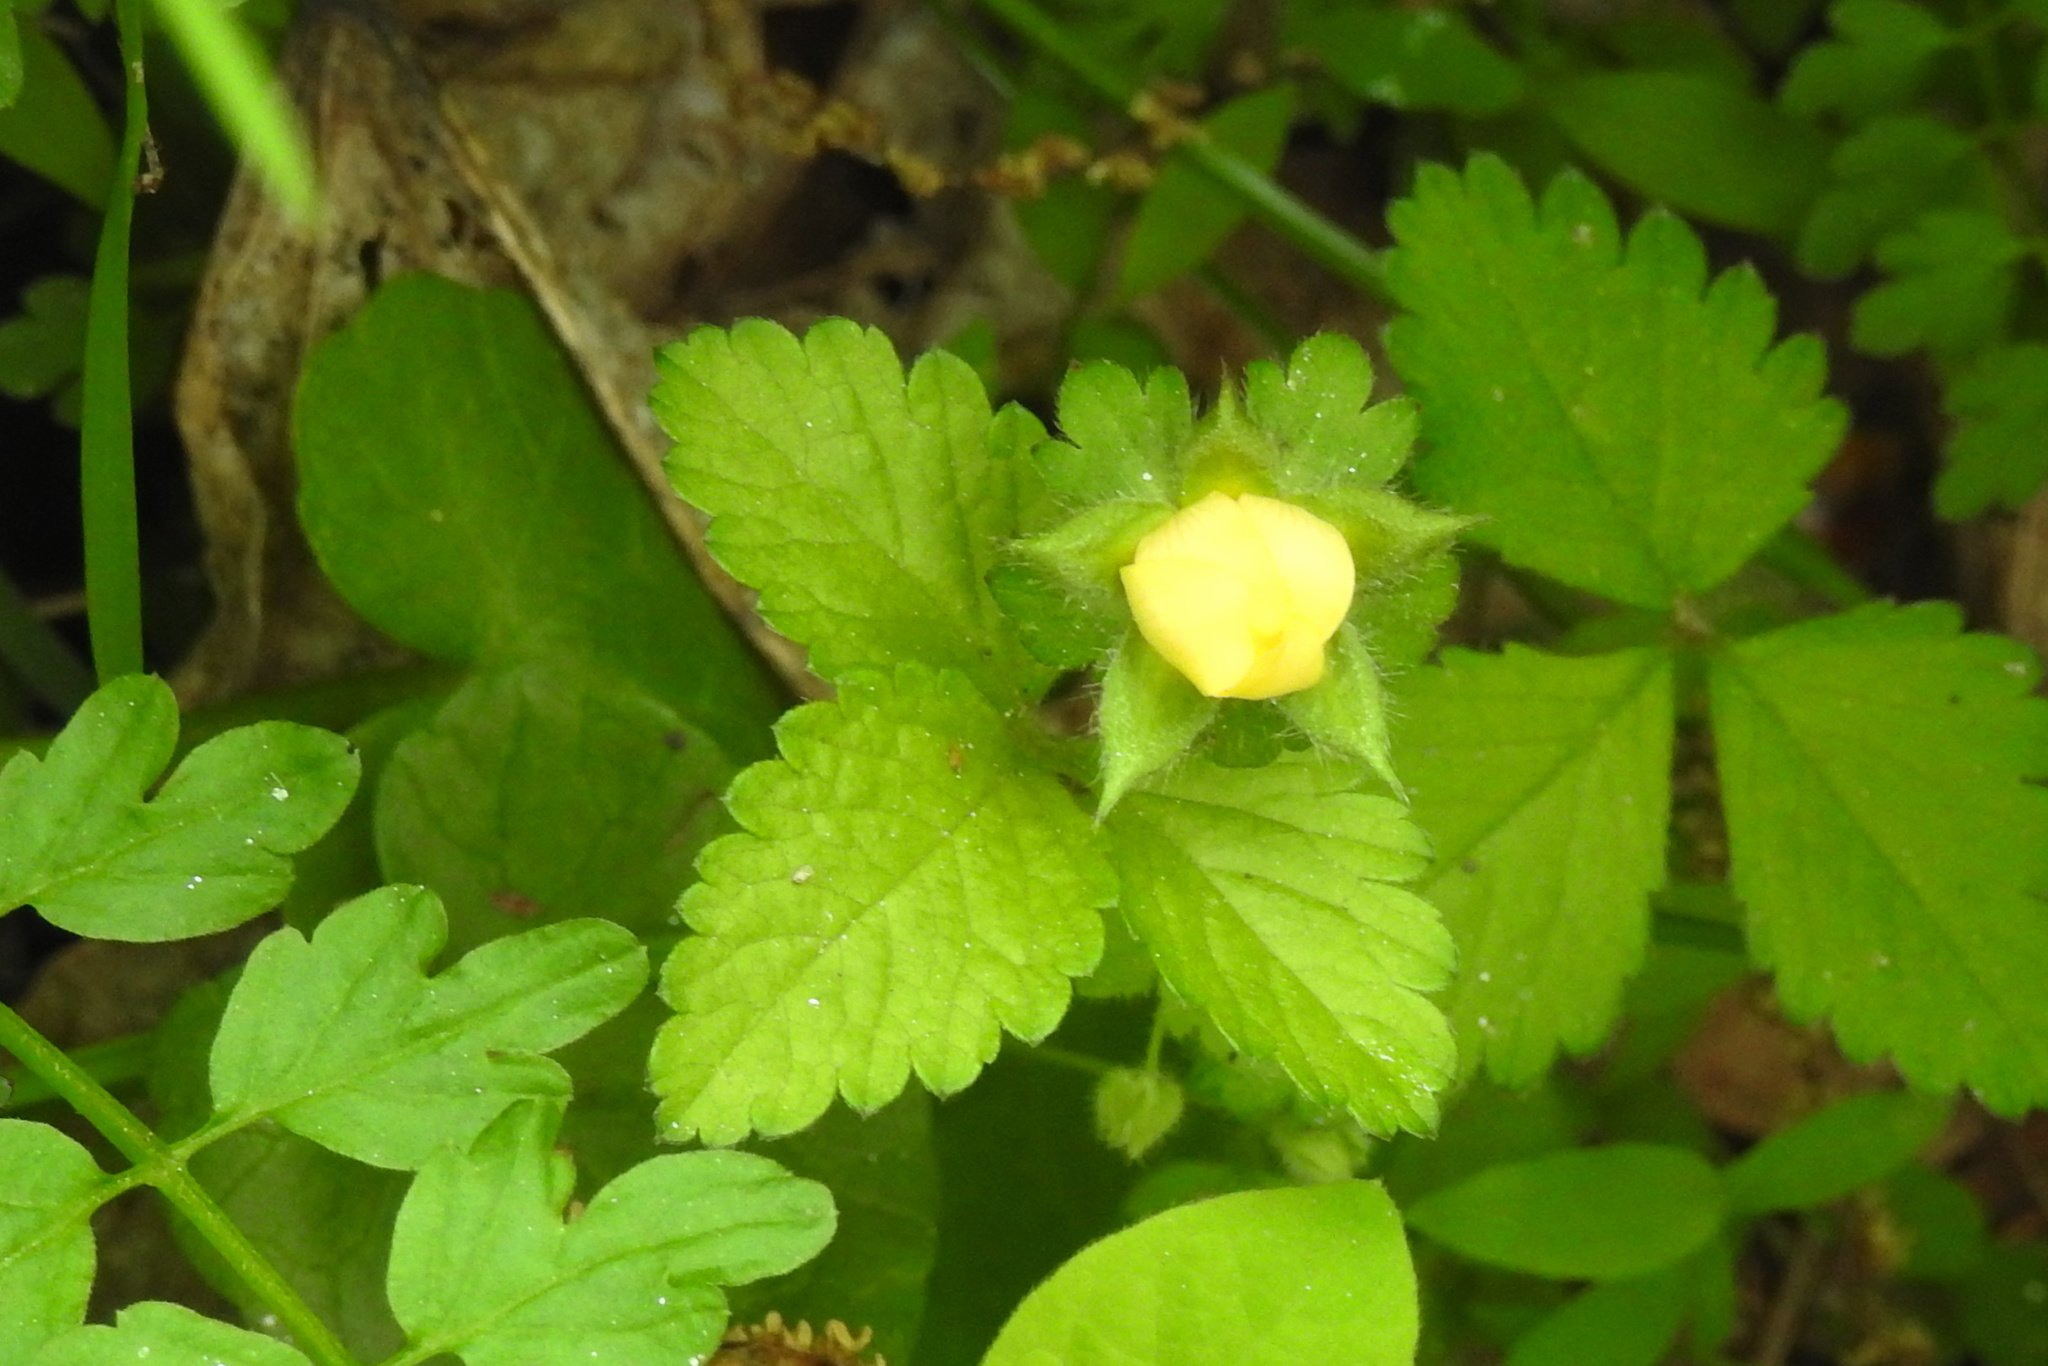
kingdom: Plantae
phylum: Tracheophyta
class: Magnoliopsida
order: Rosales
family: Rosaceae
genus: Potentilla
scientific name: Potentilla indica
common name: Yellow-flowered strawberry
